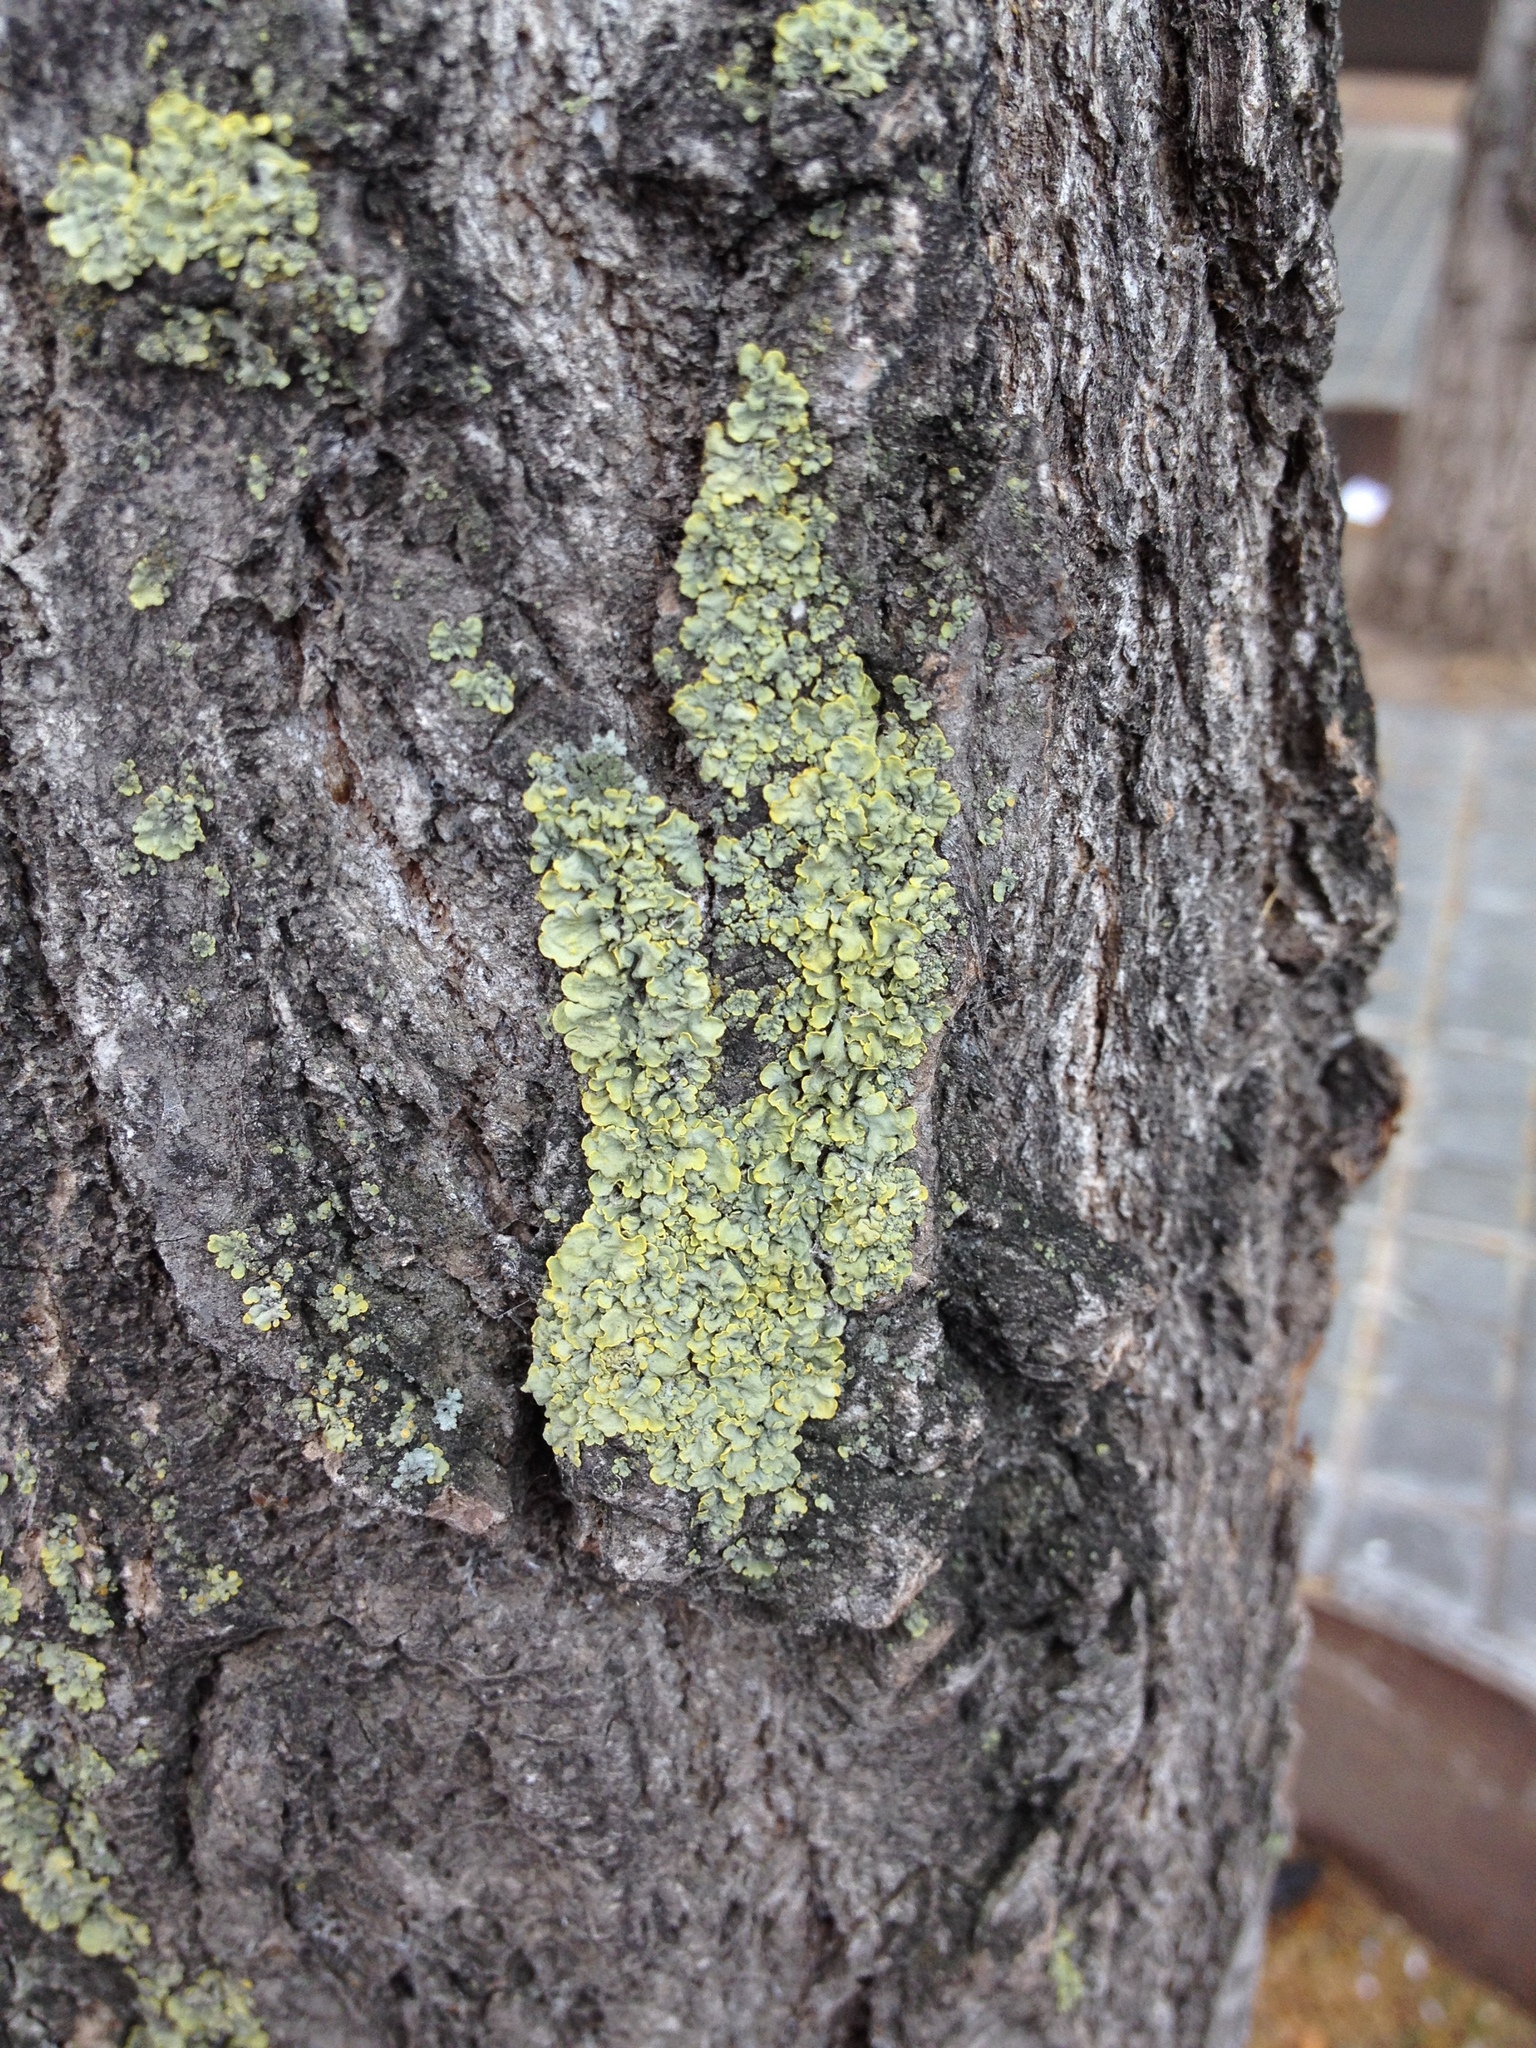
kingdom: Fungi
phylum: Ascomycota
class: Lecanoromycetes
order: Teloschistales
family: Teloschistaceae
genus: Xanthoria
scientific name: Xanthoria parietina
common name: Common orange lichen
